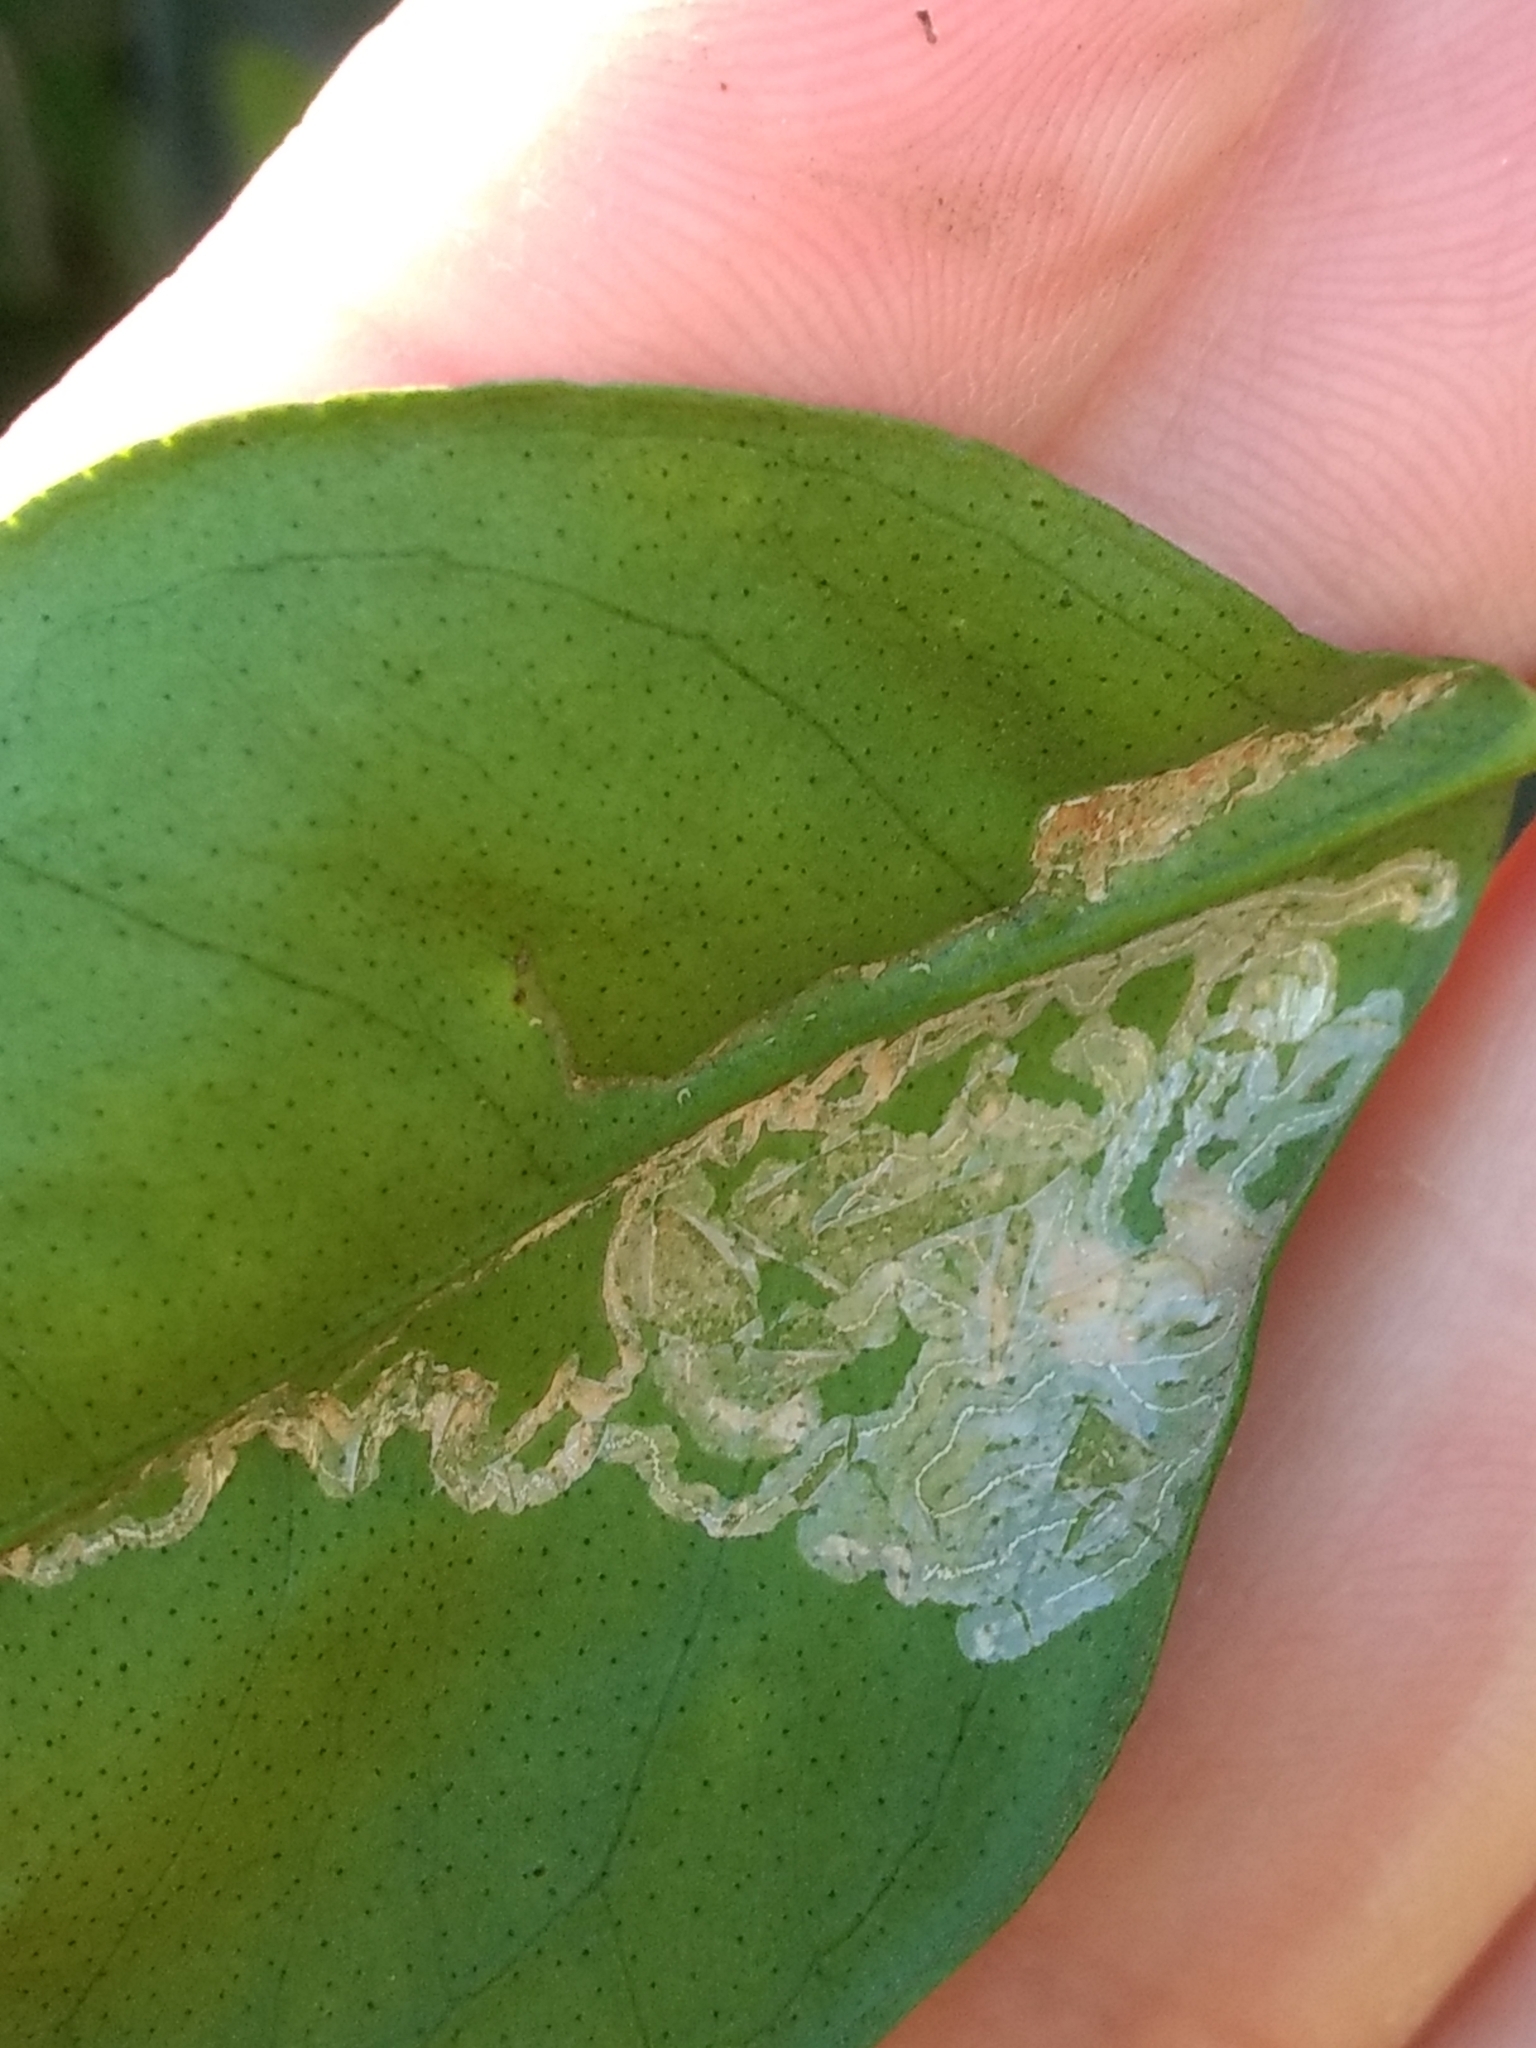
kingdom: Animalia
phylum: Arthropoda
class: Insecta
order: Lepidoptera
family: Gracillariidae
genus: Phyllocnistis
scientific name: Phyllocnistis citrella
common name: Citrus leafminer
